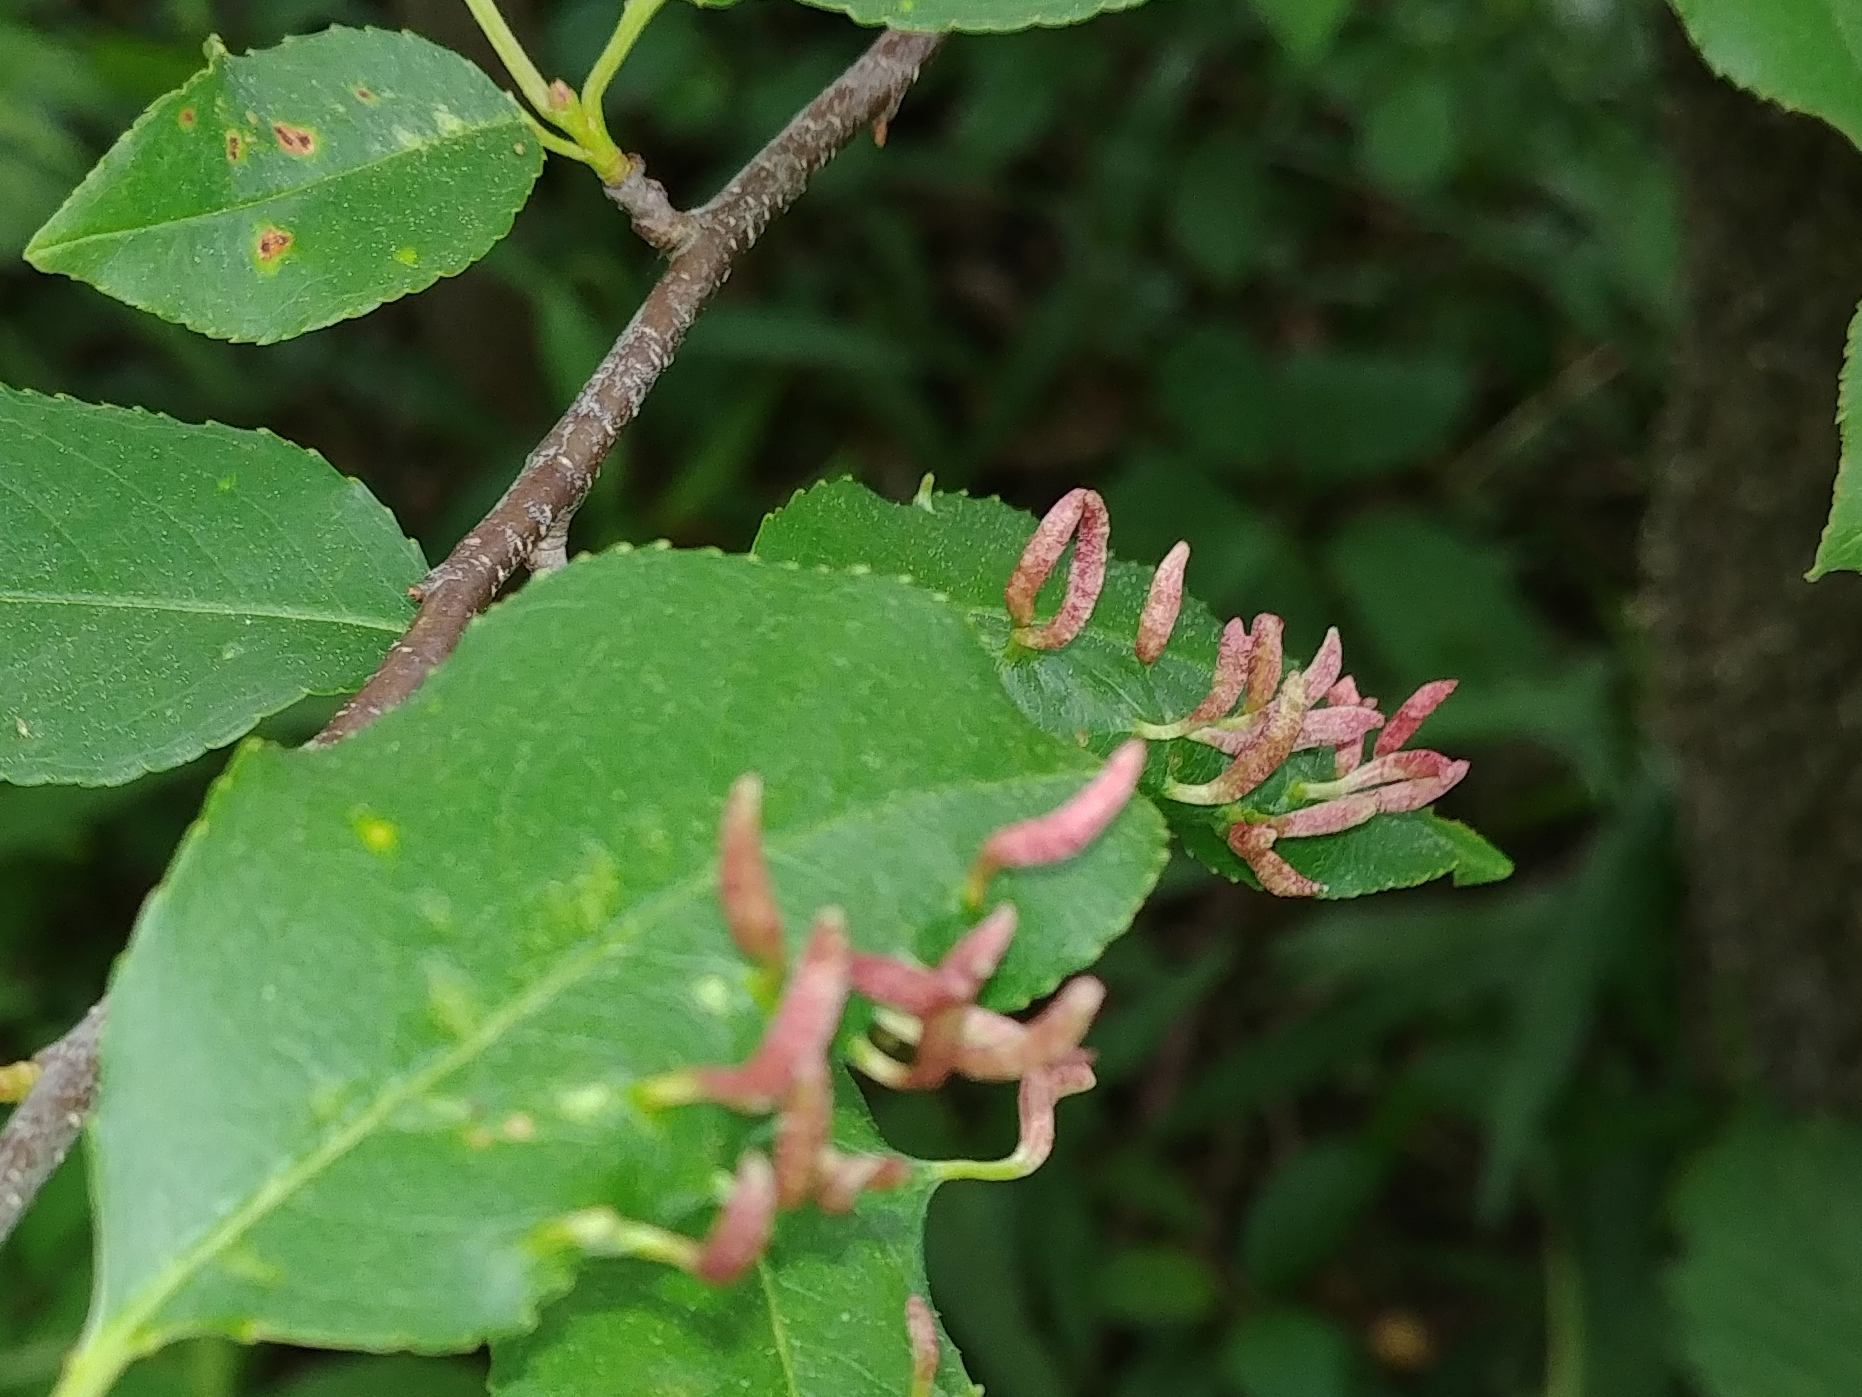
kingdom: Animalia
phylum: Arthropoda
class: Arachnida
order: Trombidiformes
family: Eriophyidae
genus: Eriophyes
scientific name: Eriophyes
